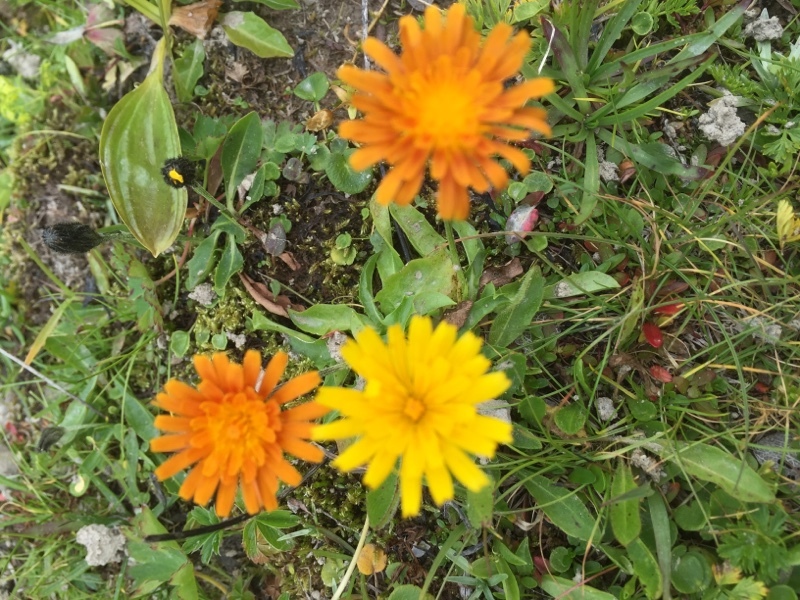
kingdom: Plantae
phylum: Tracheophyta
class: Magnoliopsida
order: Asterales
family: Asteraceae
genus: Crepis
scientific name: Crepis aurea
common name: Golden hawk's-beard
